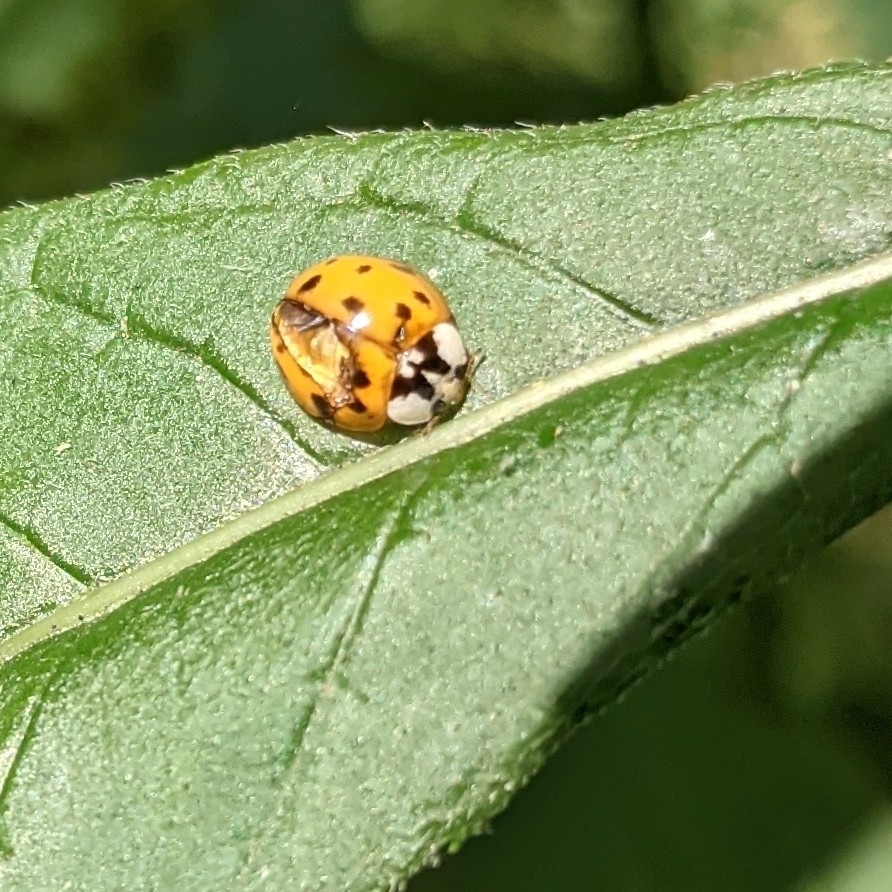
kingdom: Animalia
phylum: Arthropoda
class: Insecta
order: Coleoptera
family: Coccinellidae
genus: Harmonia
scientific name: Harmonia axyridis
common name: Harlequin ladybird
